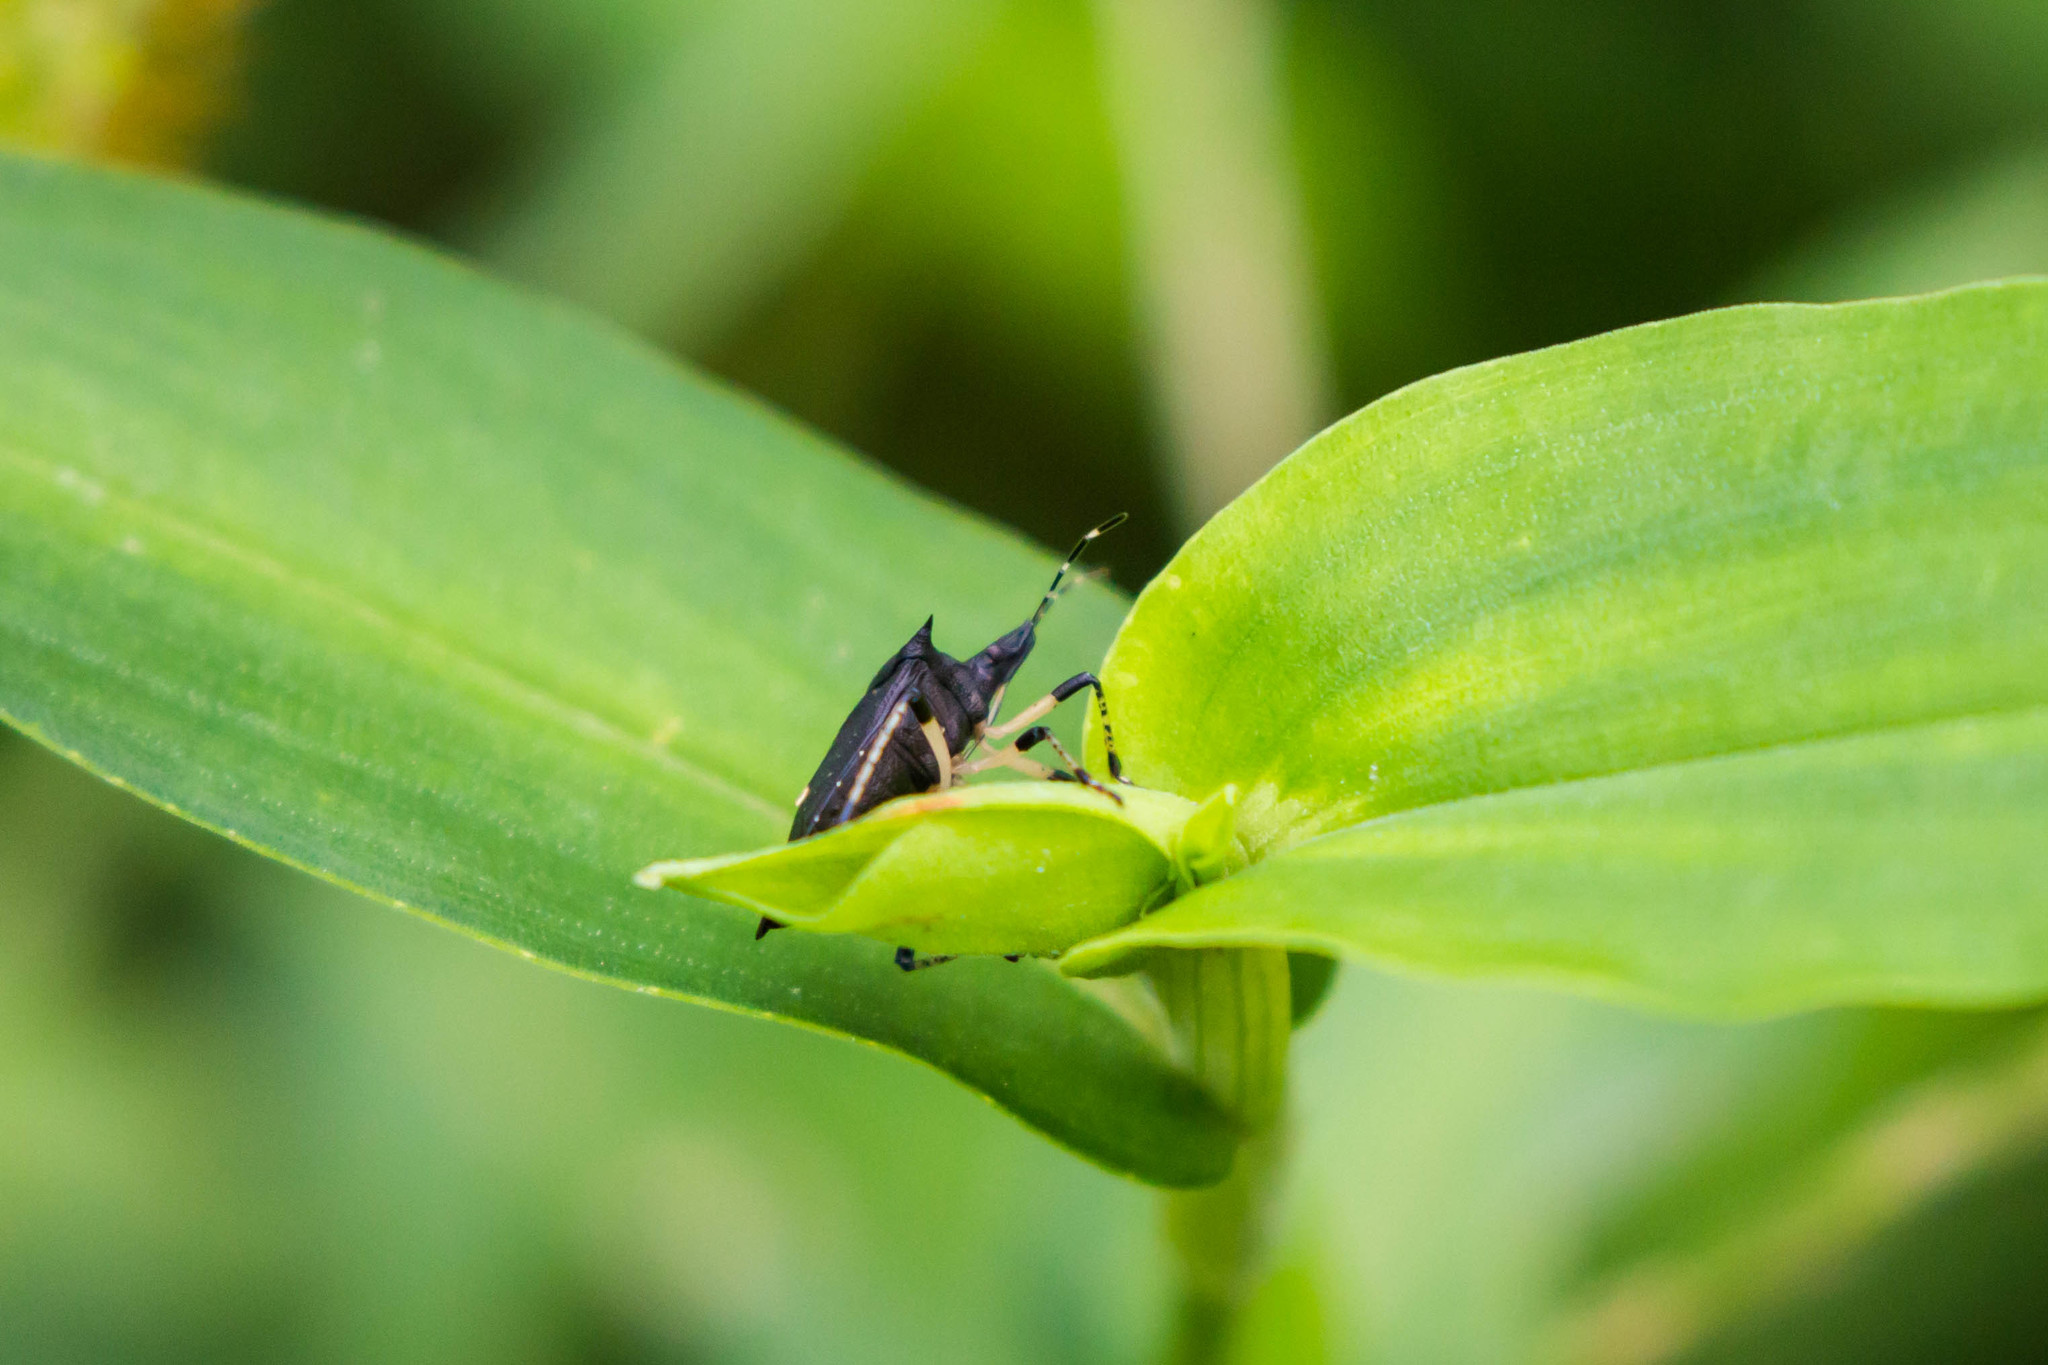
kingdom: Animalia
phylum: Arthropoda
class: Insecta
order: Hemiptera
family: Pentatomidae
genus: Proxys
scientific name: Proxys punctulatus
